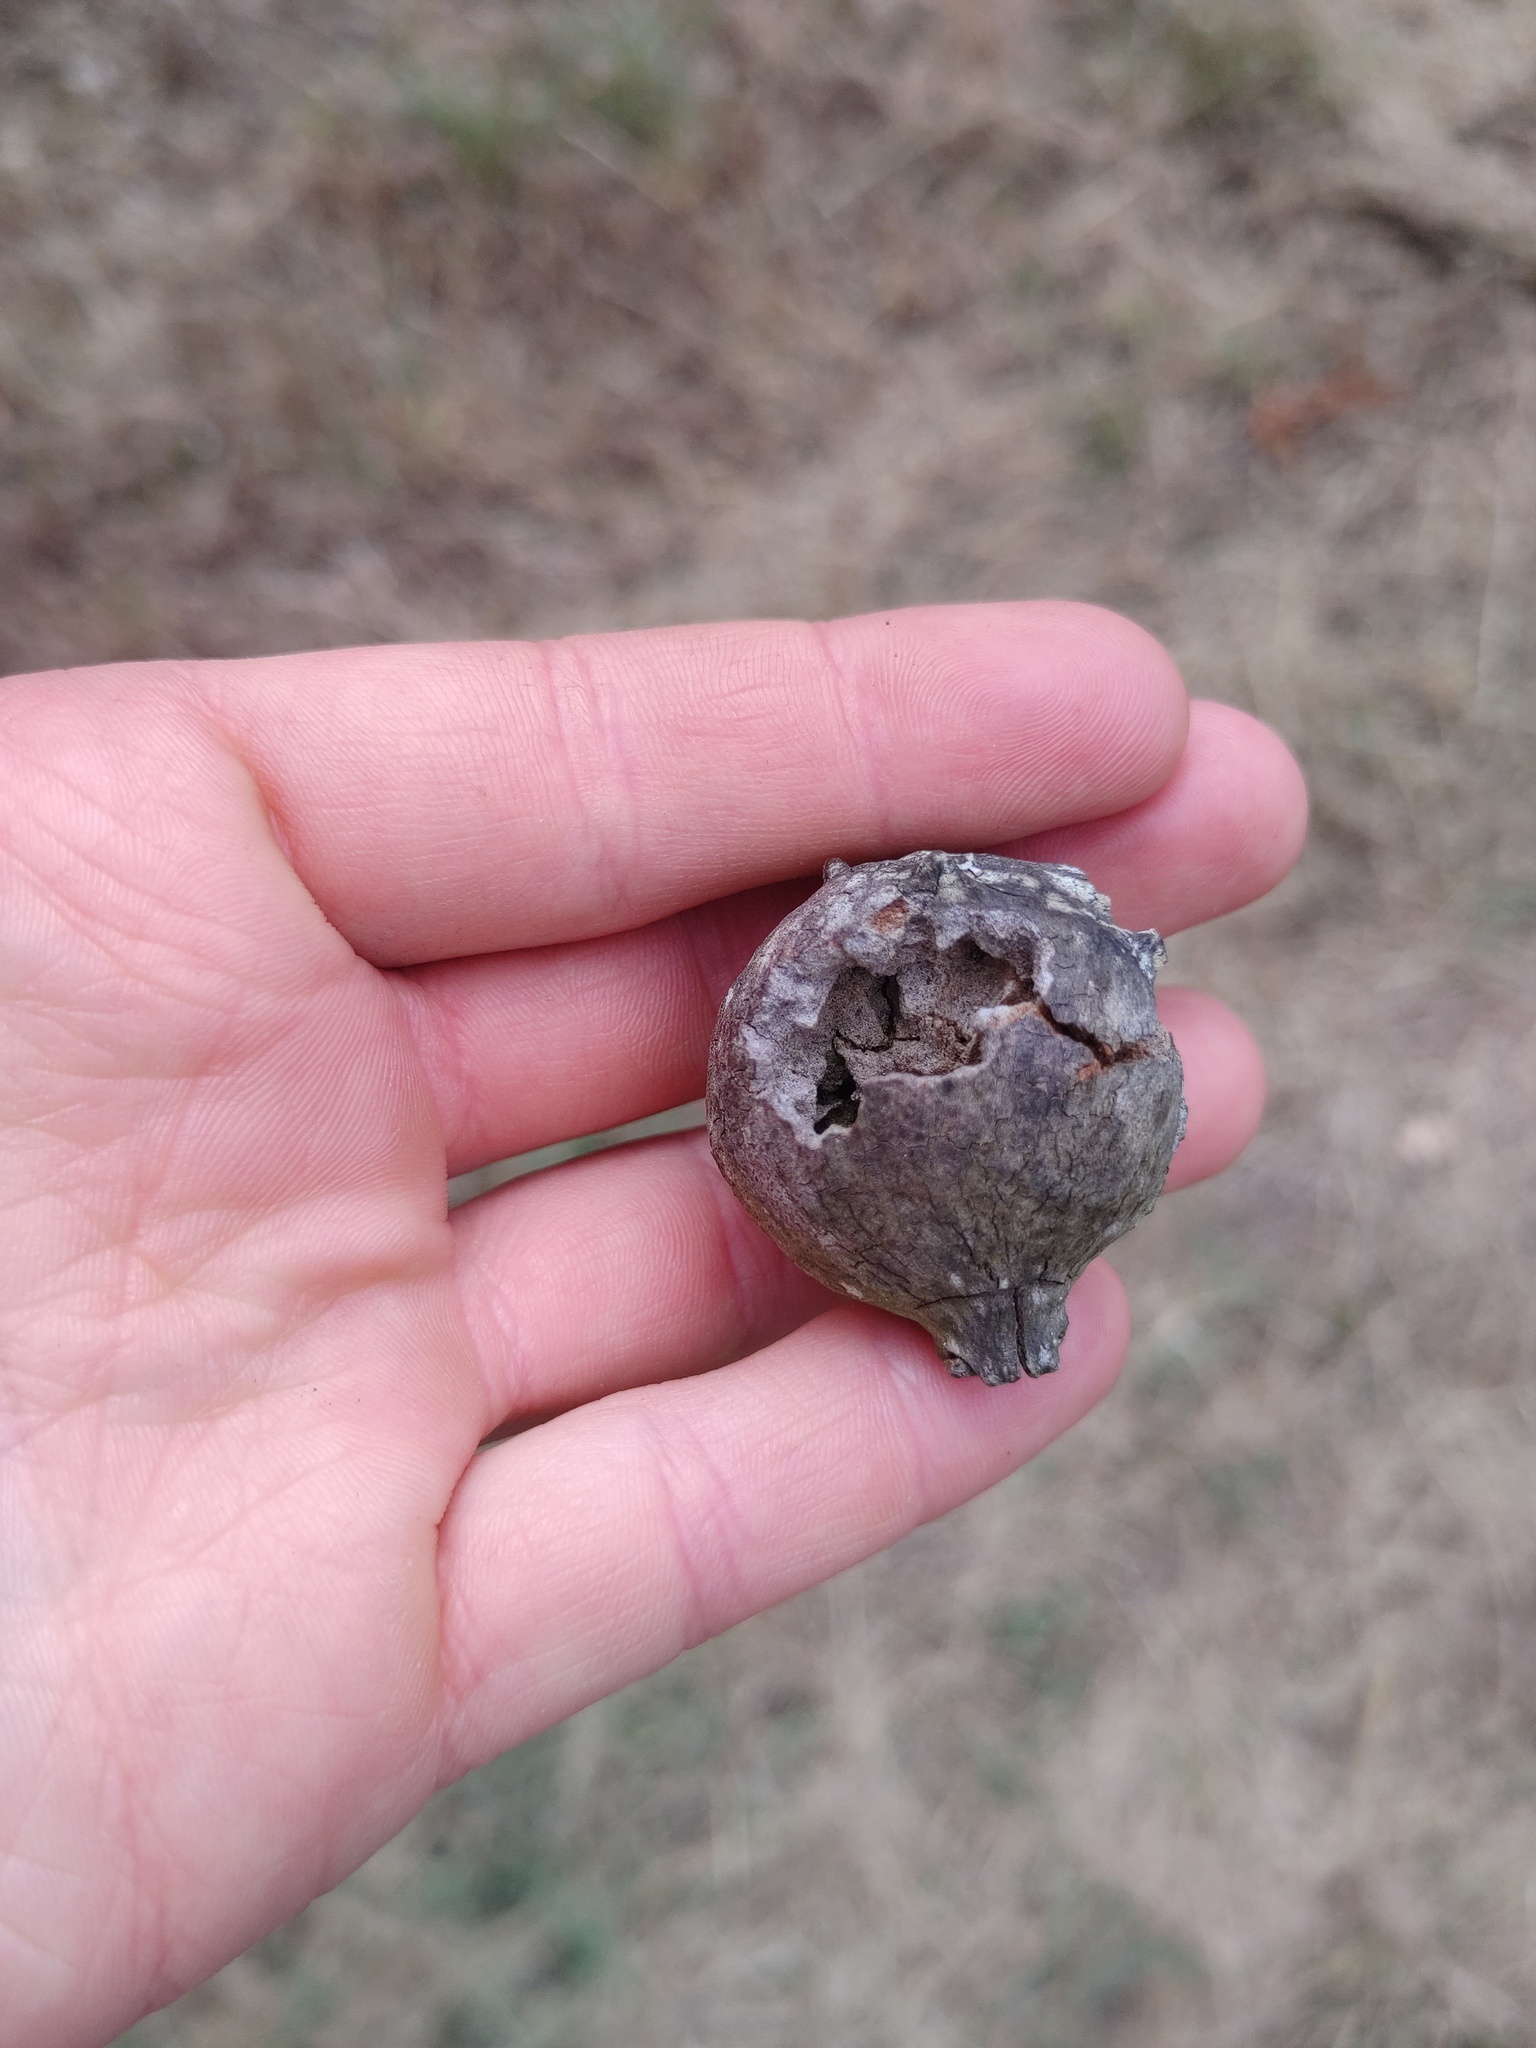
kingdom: Animalia
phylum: Arthropoda
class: Insecta
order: Hymenoptera
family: Cynipidae
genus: Andricus
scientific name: Andricus quercustozae
